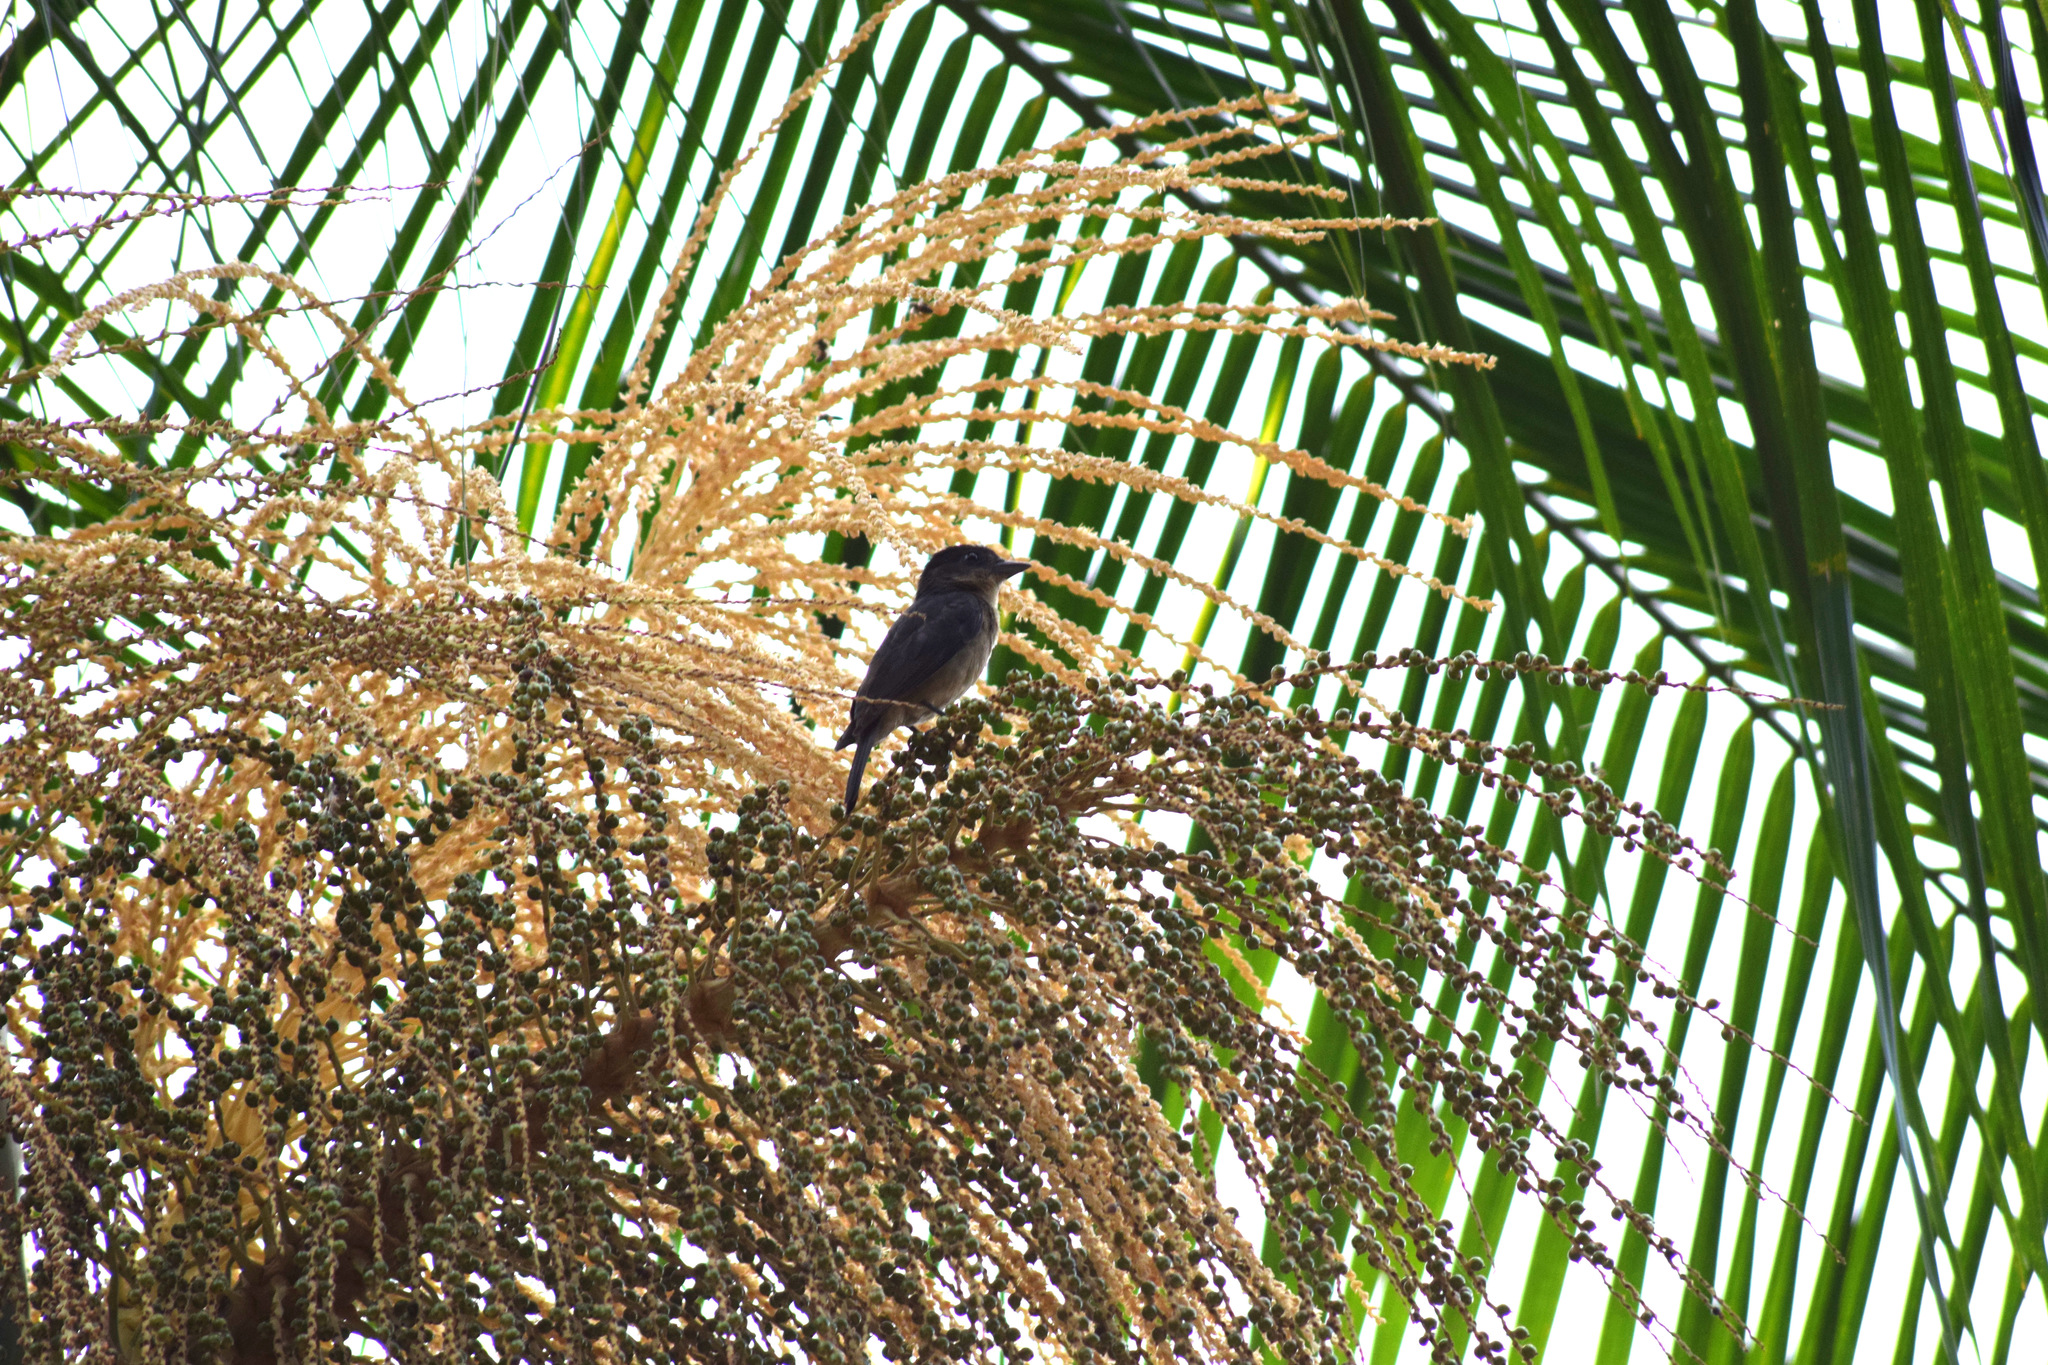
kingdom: Animalia
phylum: Chordata
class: Aves
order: Passeriformes
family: Cotingidae
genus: Pachyramphus
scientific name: Pachyramphus validus
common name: Crested becard
